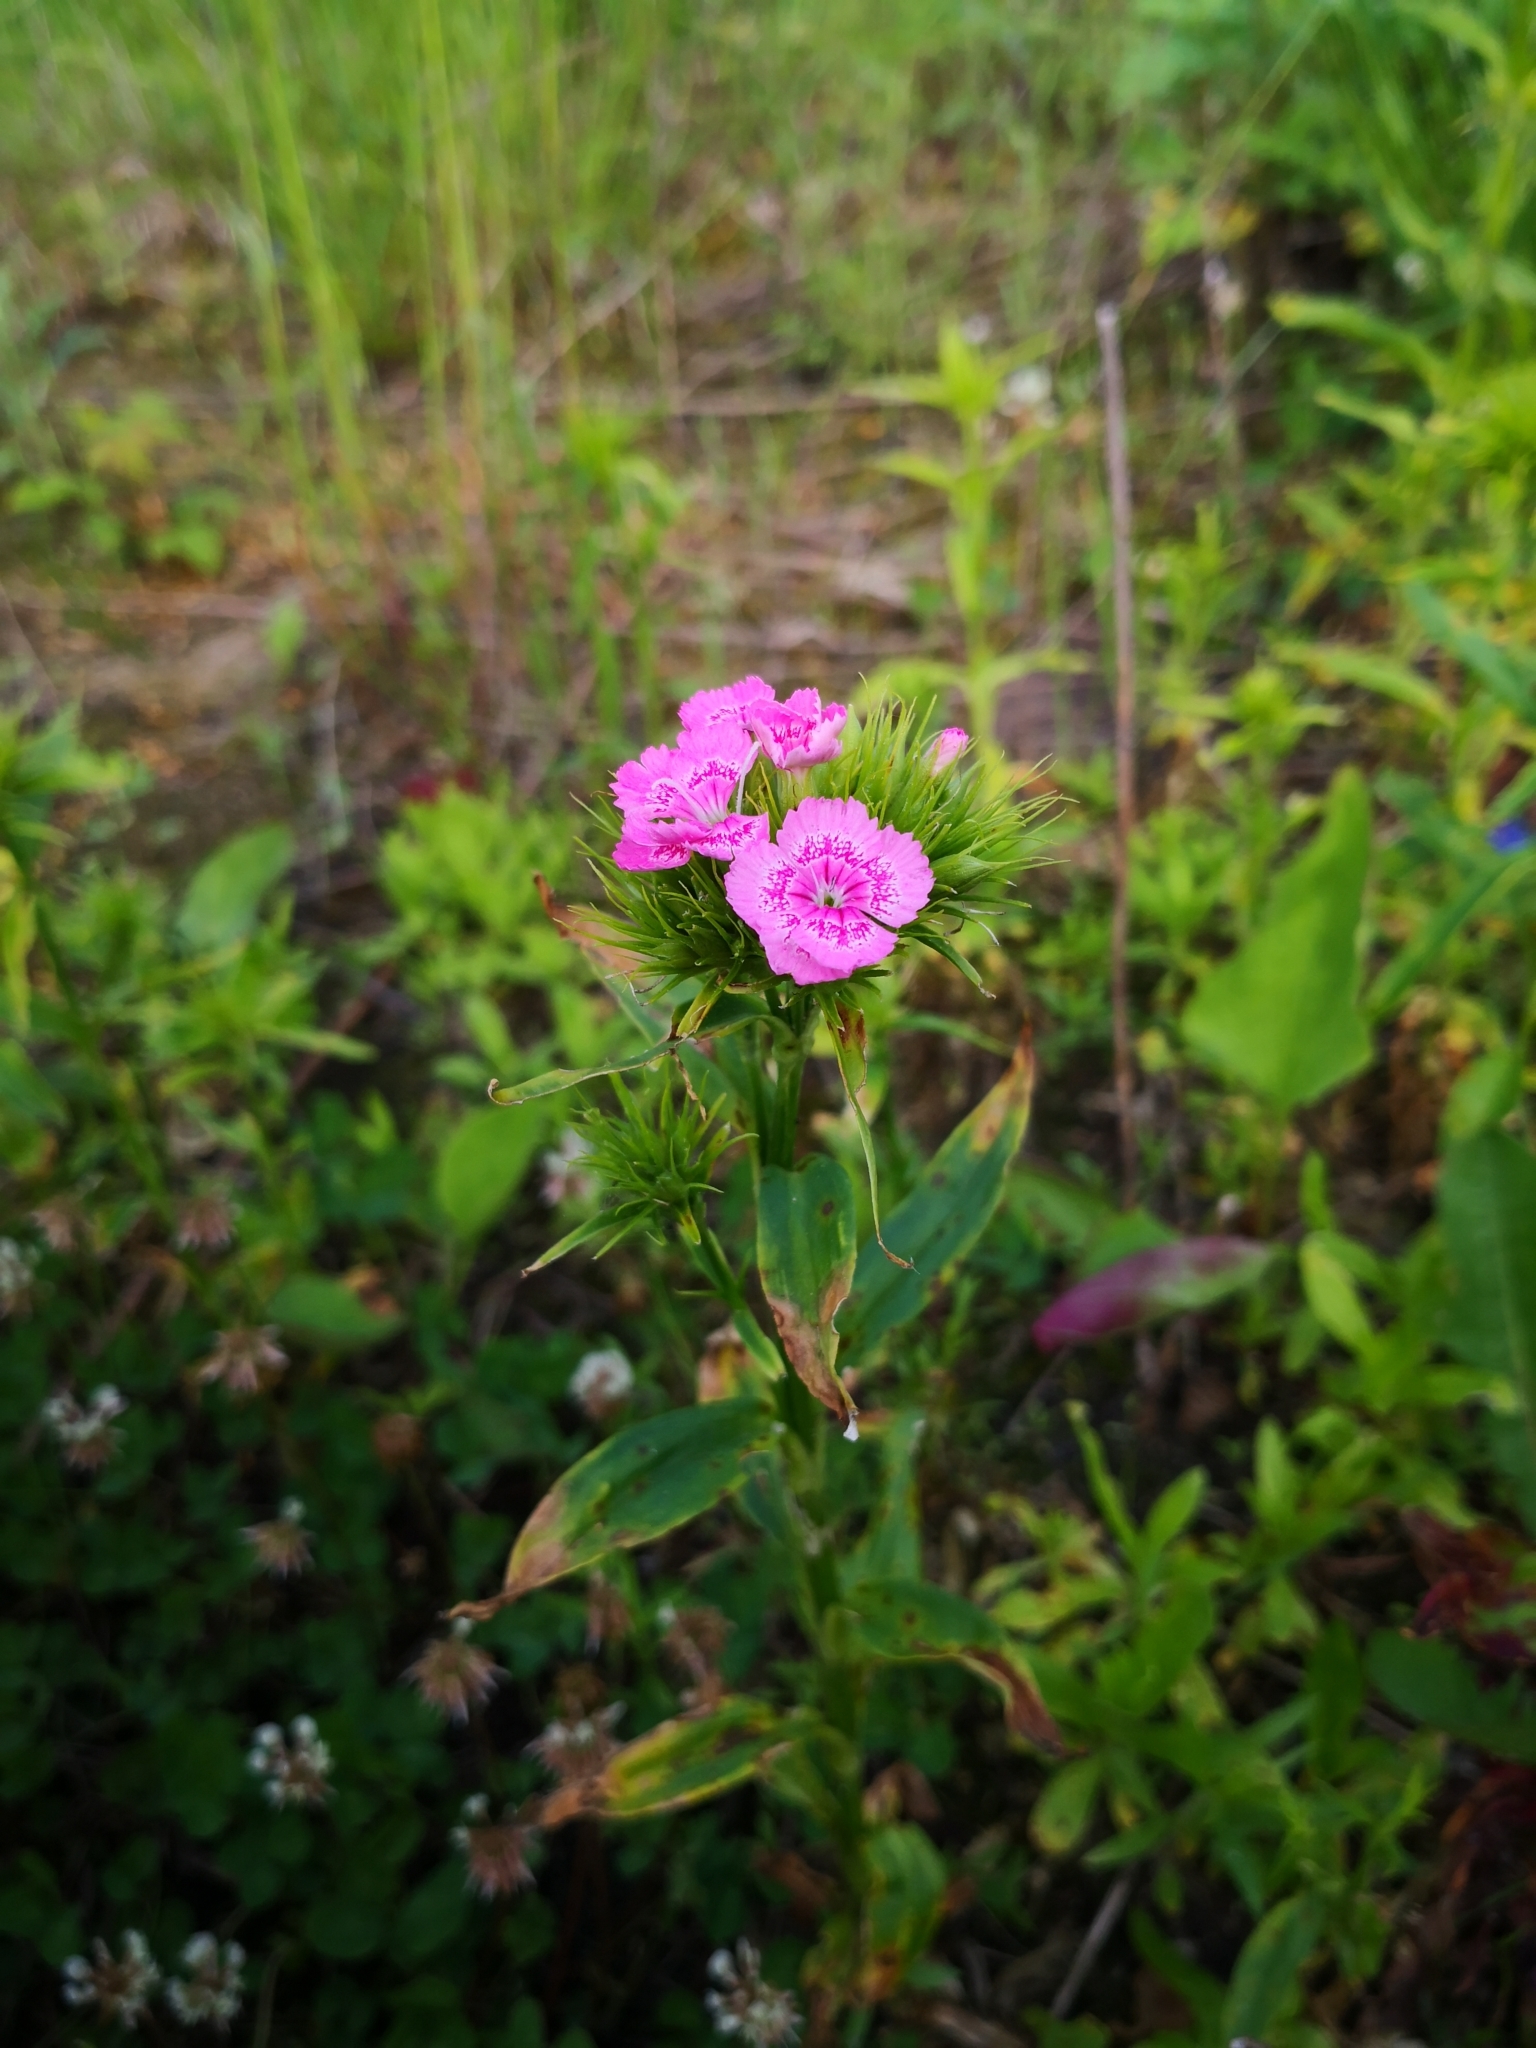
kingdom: Plantae
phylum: Tracheophyta
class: Magnoliopsida
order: Caryophyllales
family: Caryophyllaceae
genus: Dianthus
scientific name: Dianthus barbatus
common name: Sweet-william
